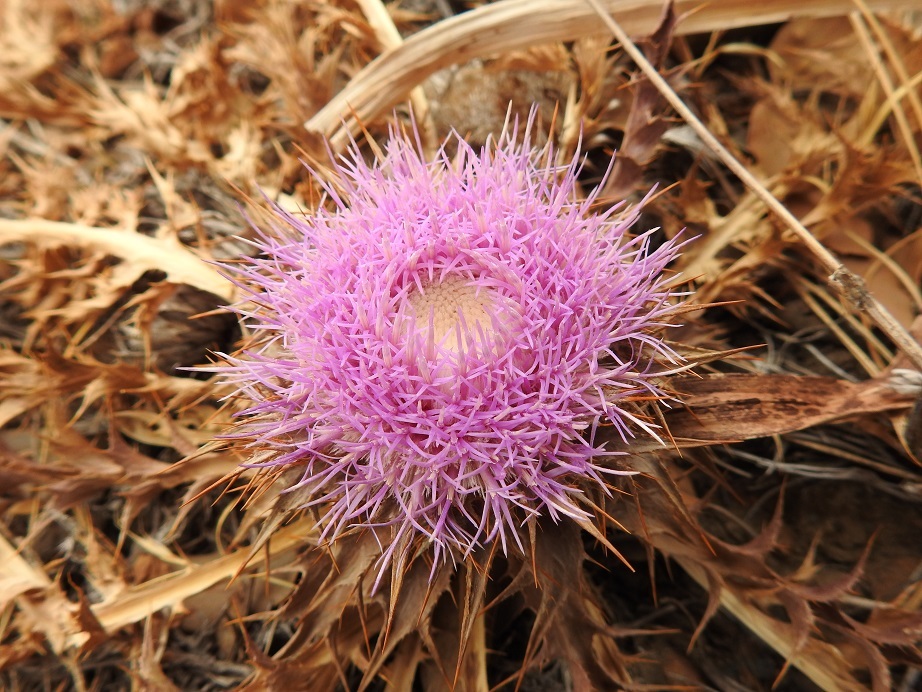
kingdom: Plantae
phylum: Tracheophyta
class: Magnoliopsida
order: Asterales
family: Asteraceae
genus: Chamaeleon
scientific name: Chamaeleon gummifer
